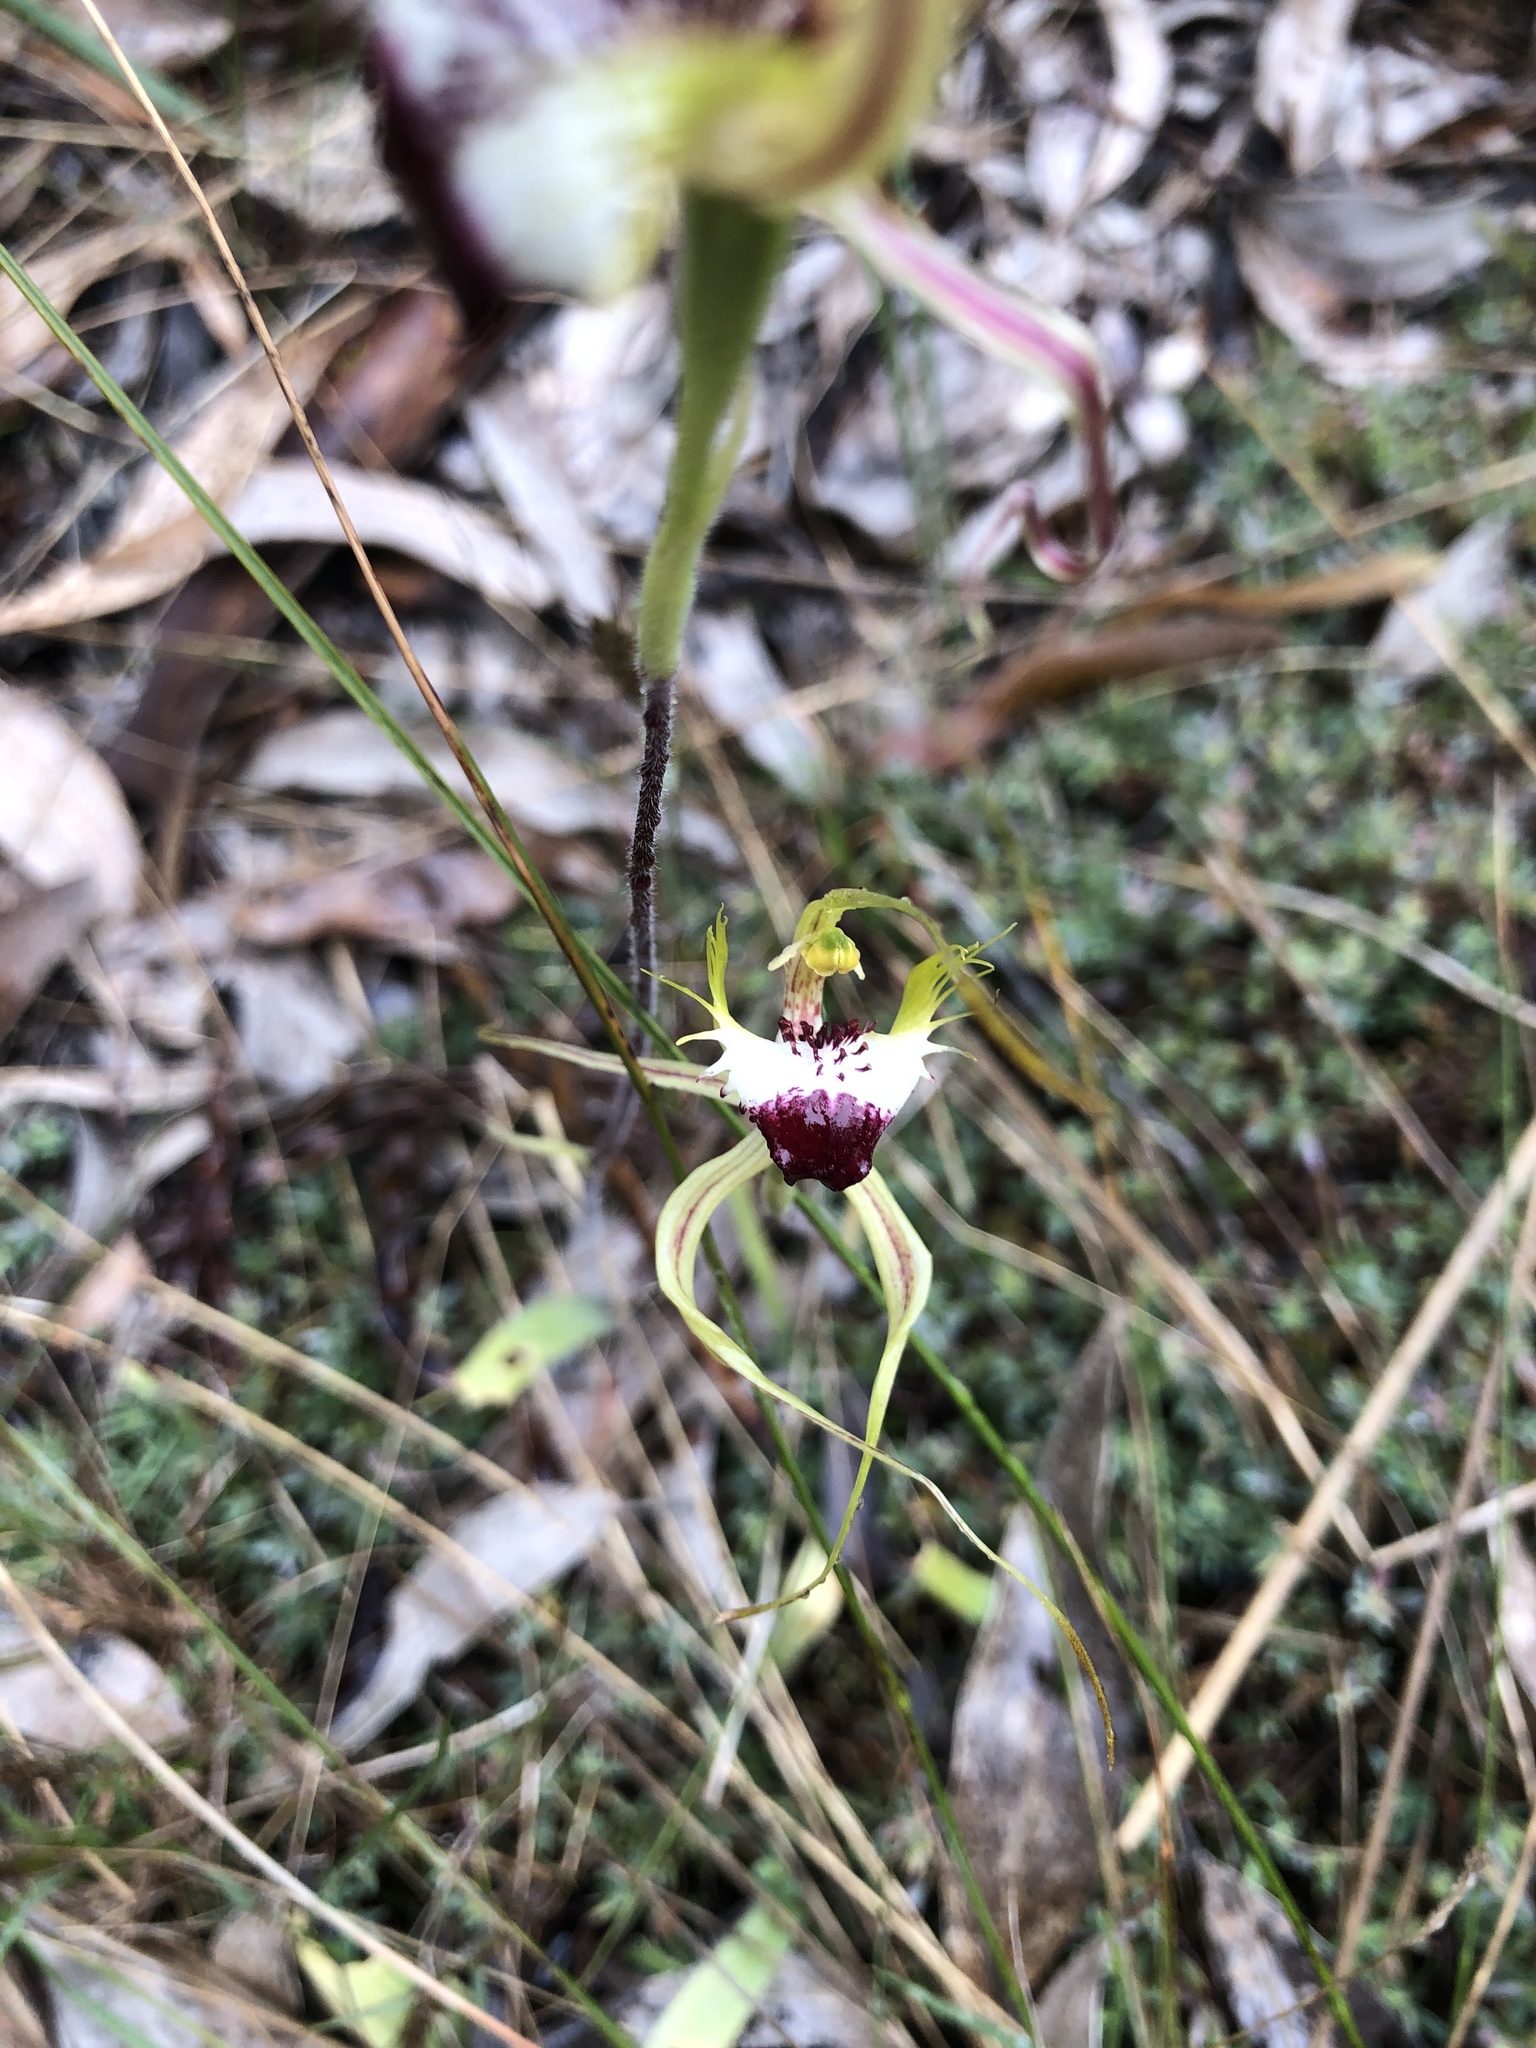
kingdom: Plantae
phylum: Tracheophyta
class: Liliopsida
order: Asparagales
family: Orchidaceae
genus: Caladenia
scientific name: Caladenia tentaculata
